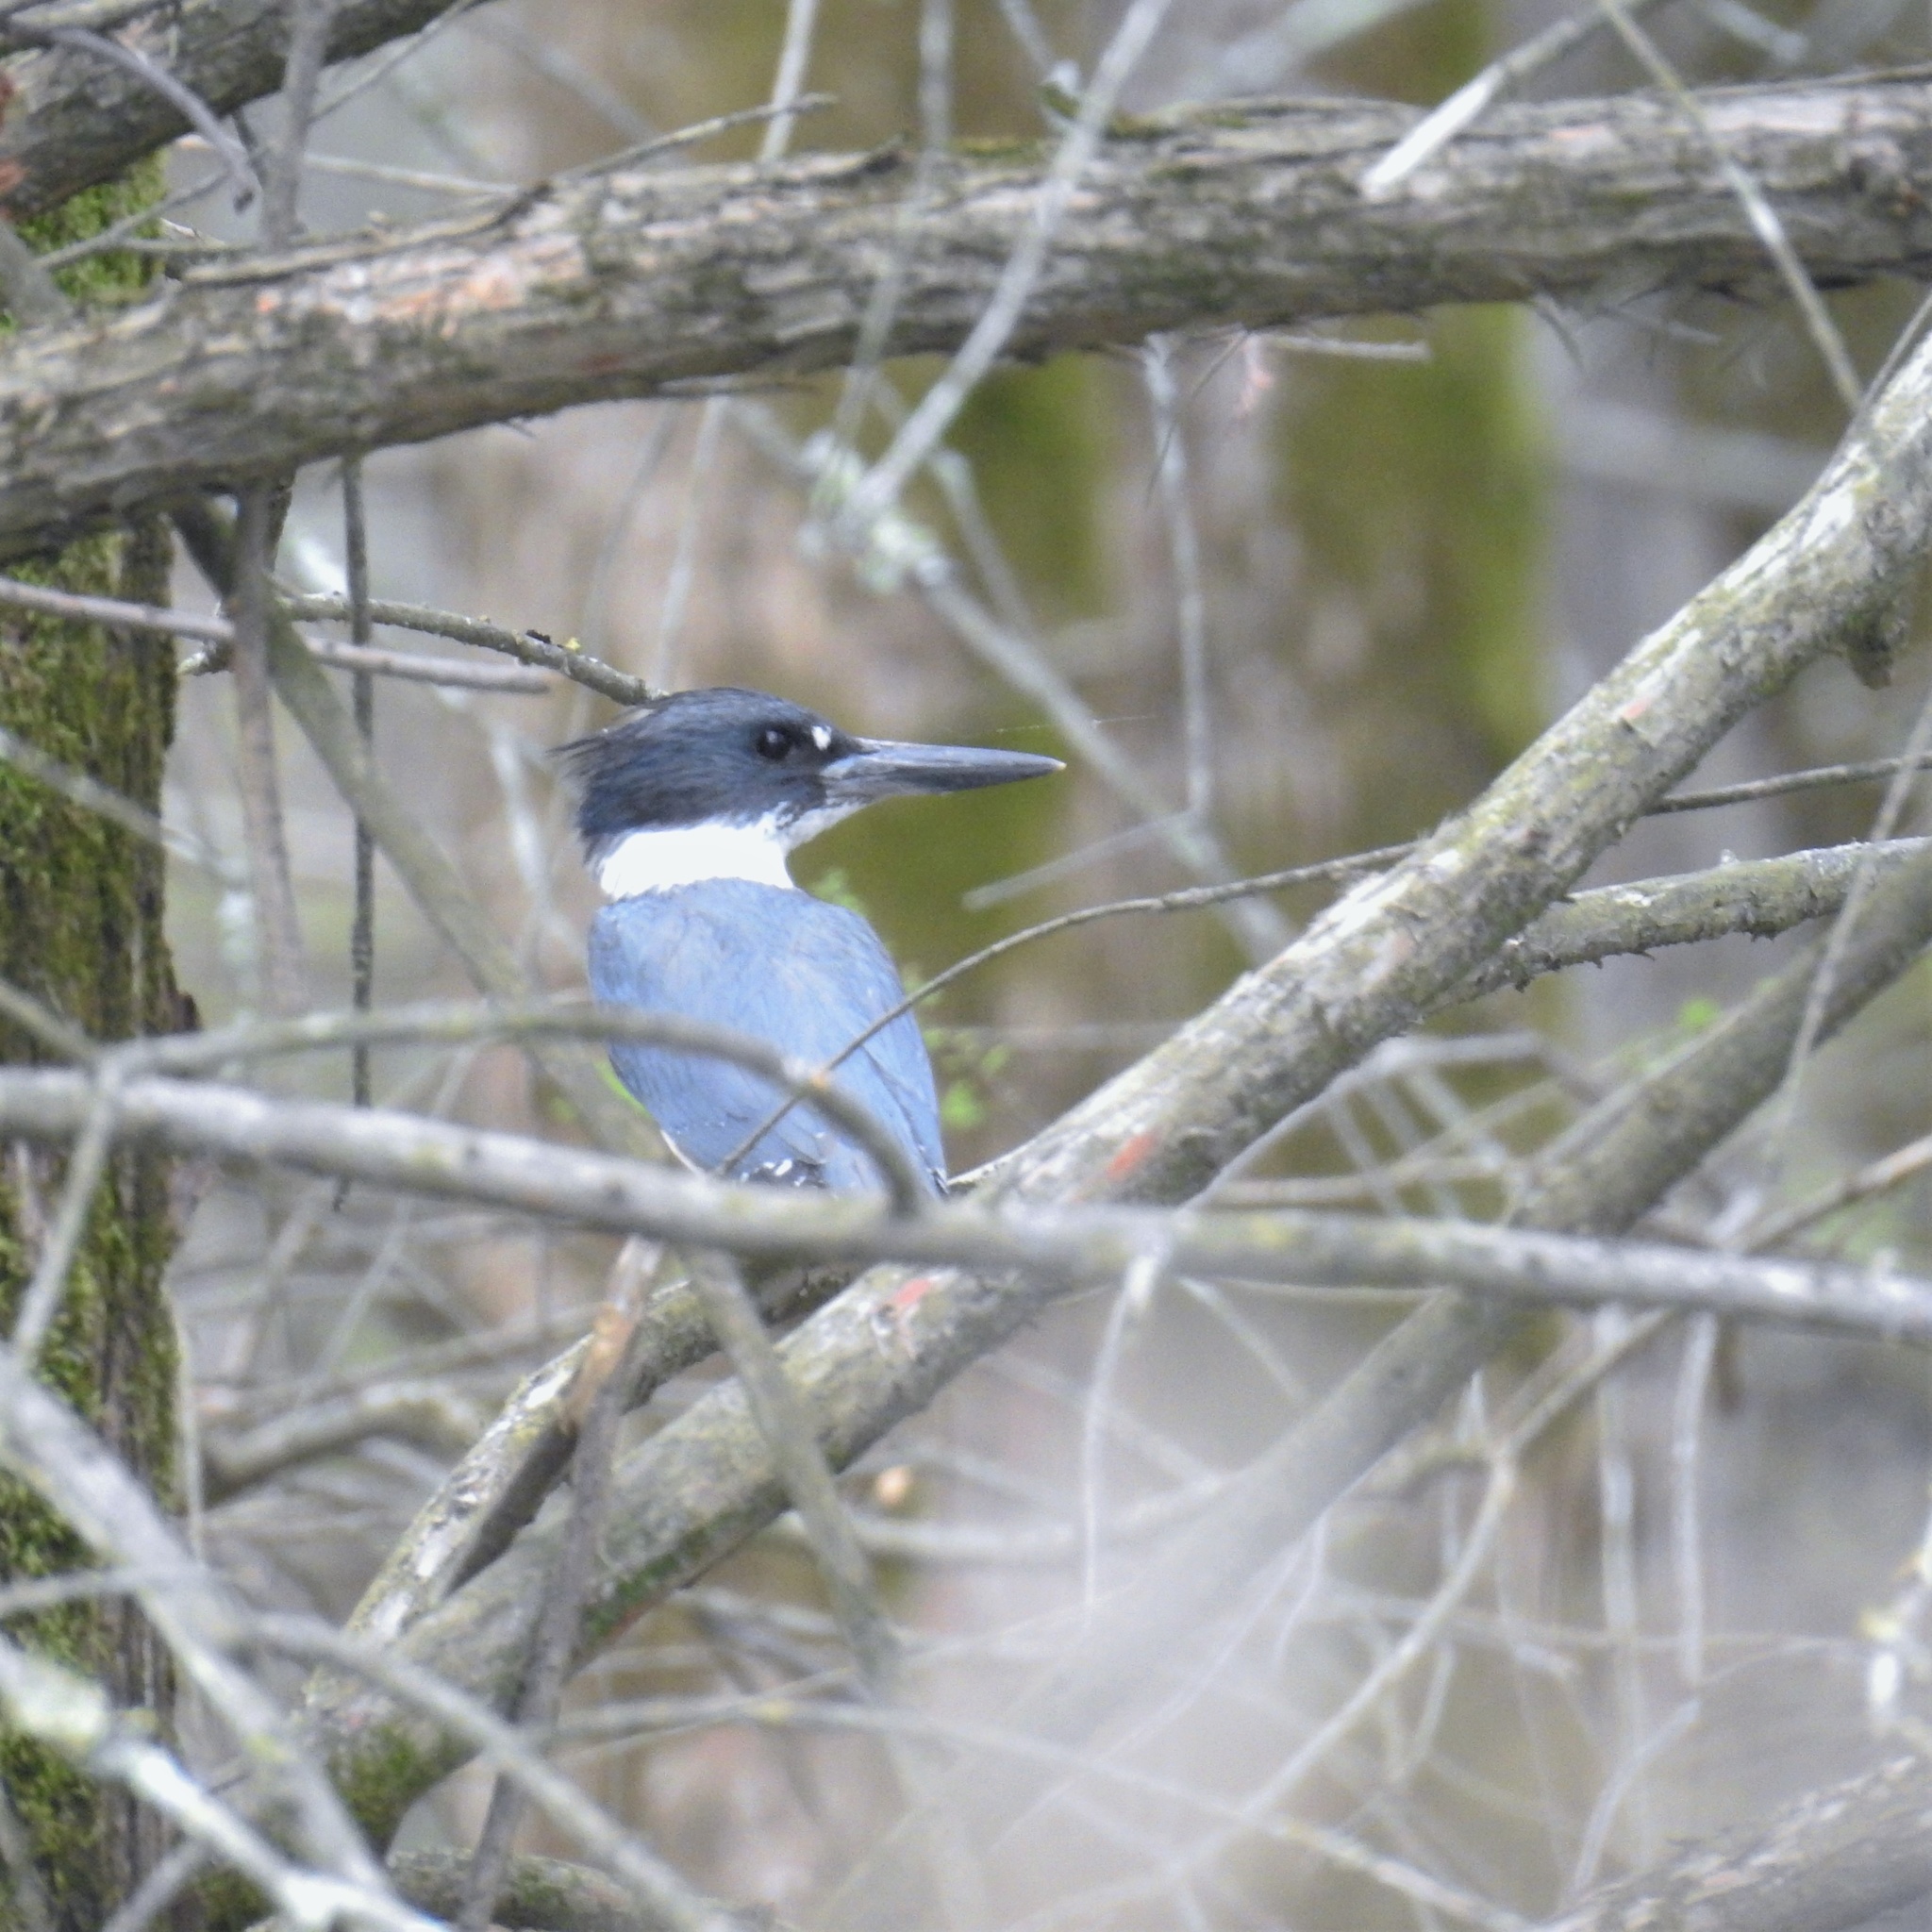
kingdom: Animalia
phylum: Chordata
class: Aves
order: Coraciiformes
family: Alcedinidae
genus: Megaceryle
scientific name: Megaceryle alcyon
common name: Belted kingfisher
